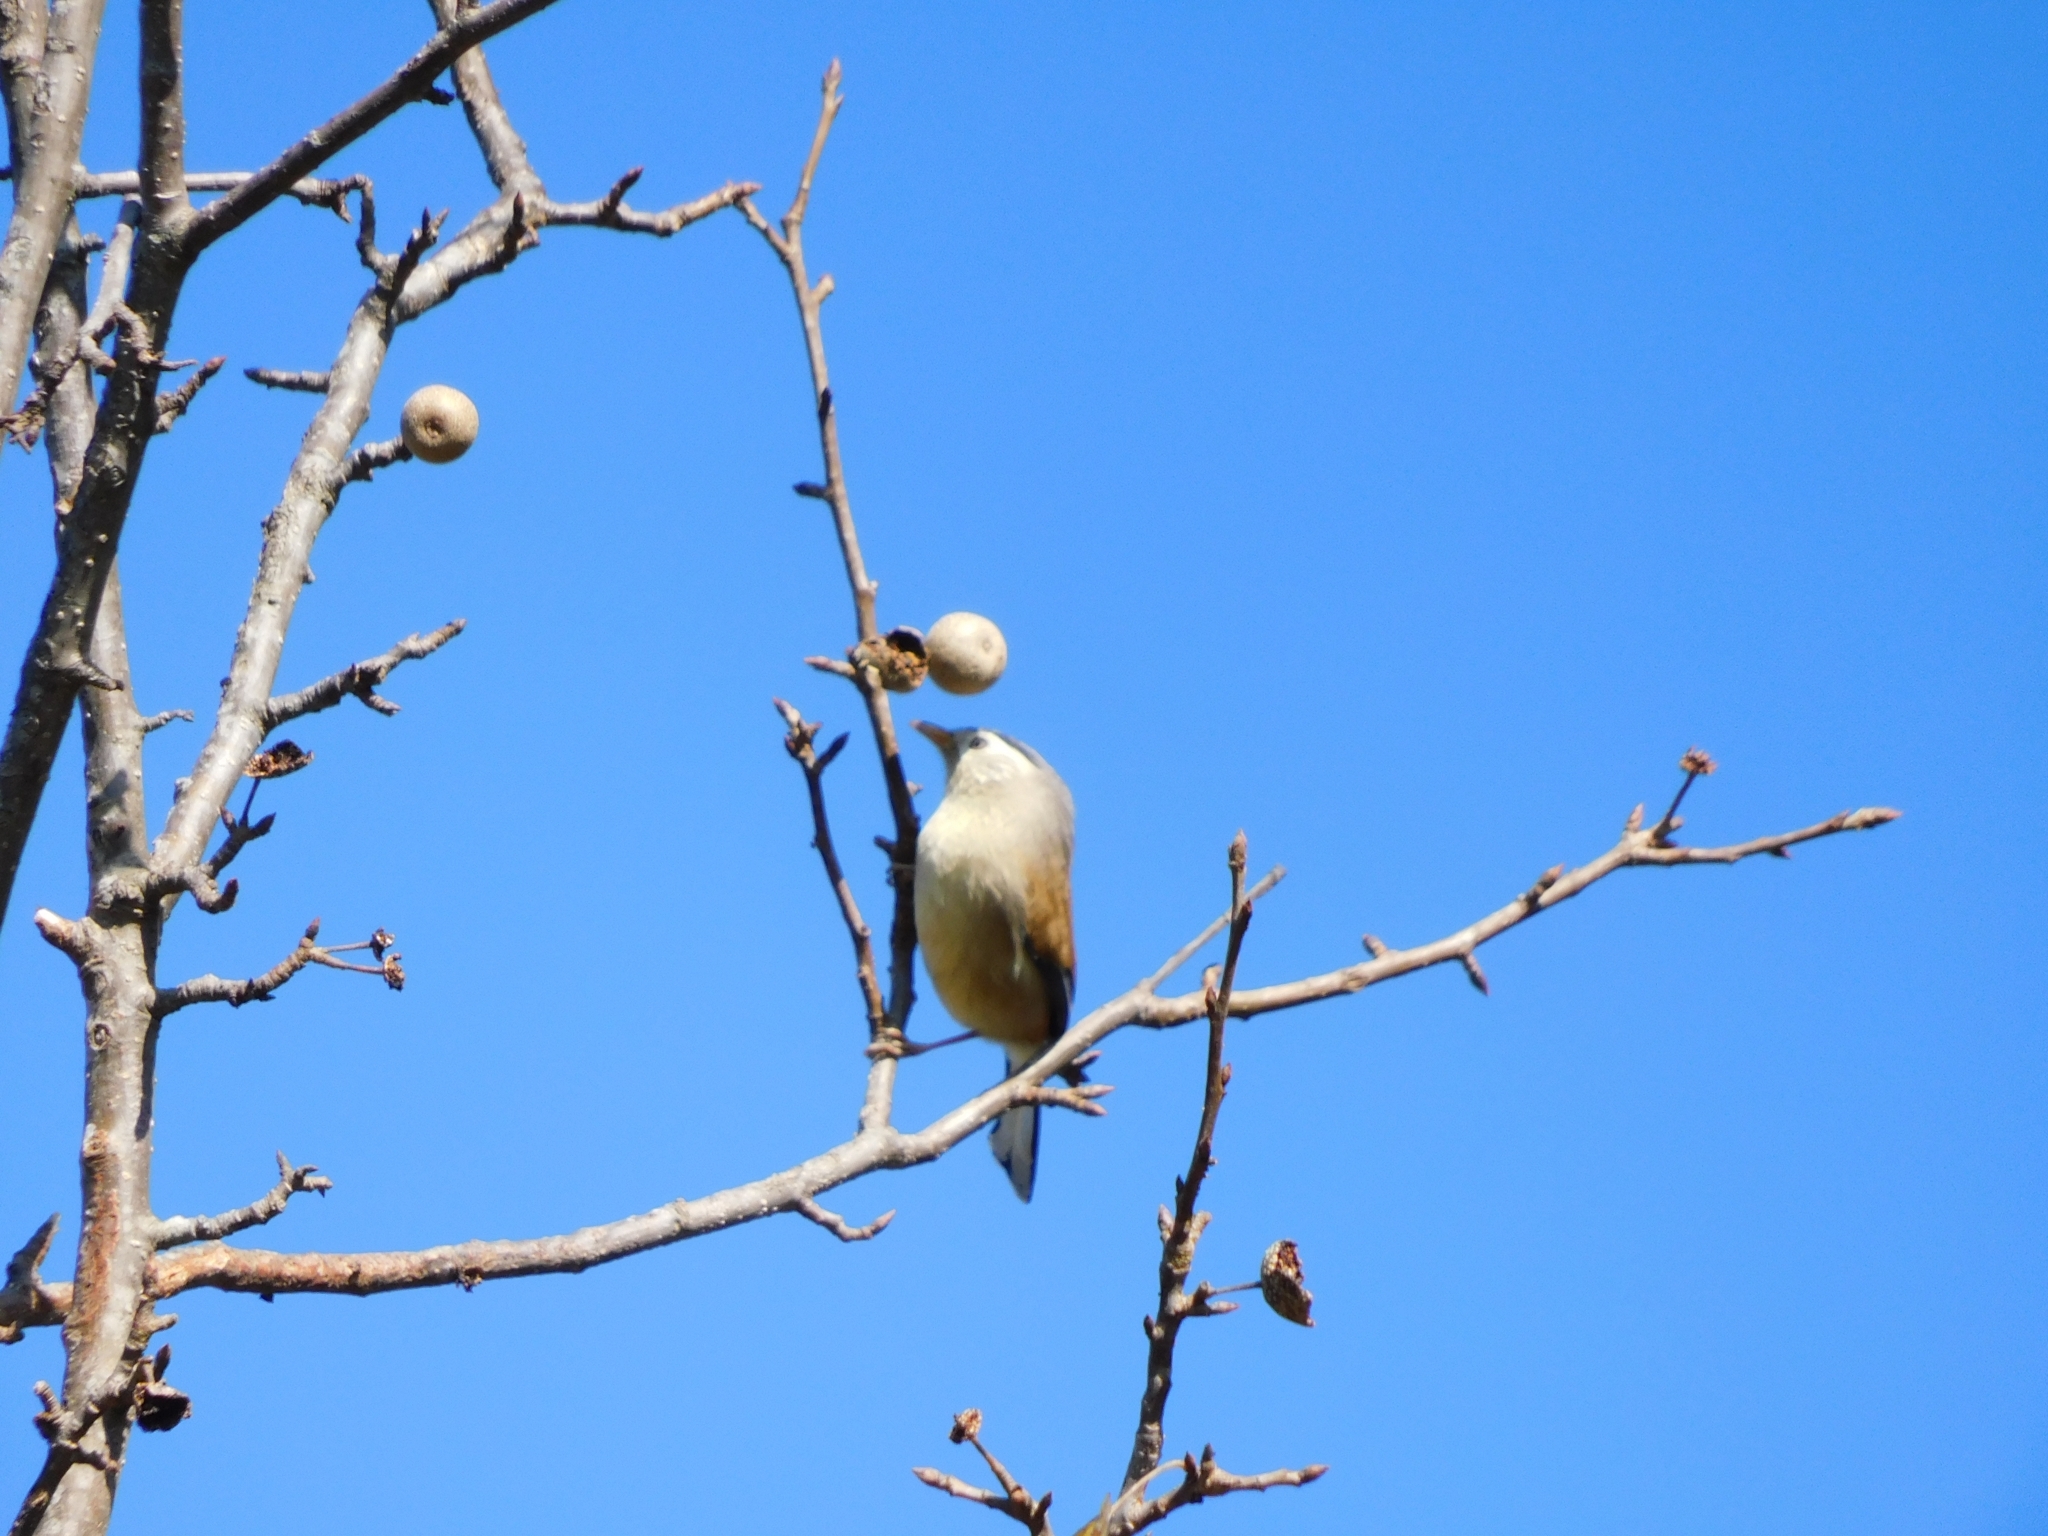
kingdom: Animalia
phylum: Chordata
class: Aves
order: Passeriformes
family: Sturnidae
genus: Sturnia
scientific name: Sturnia malabarica
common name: Chestnut-tailed starling
